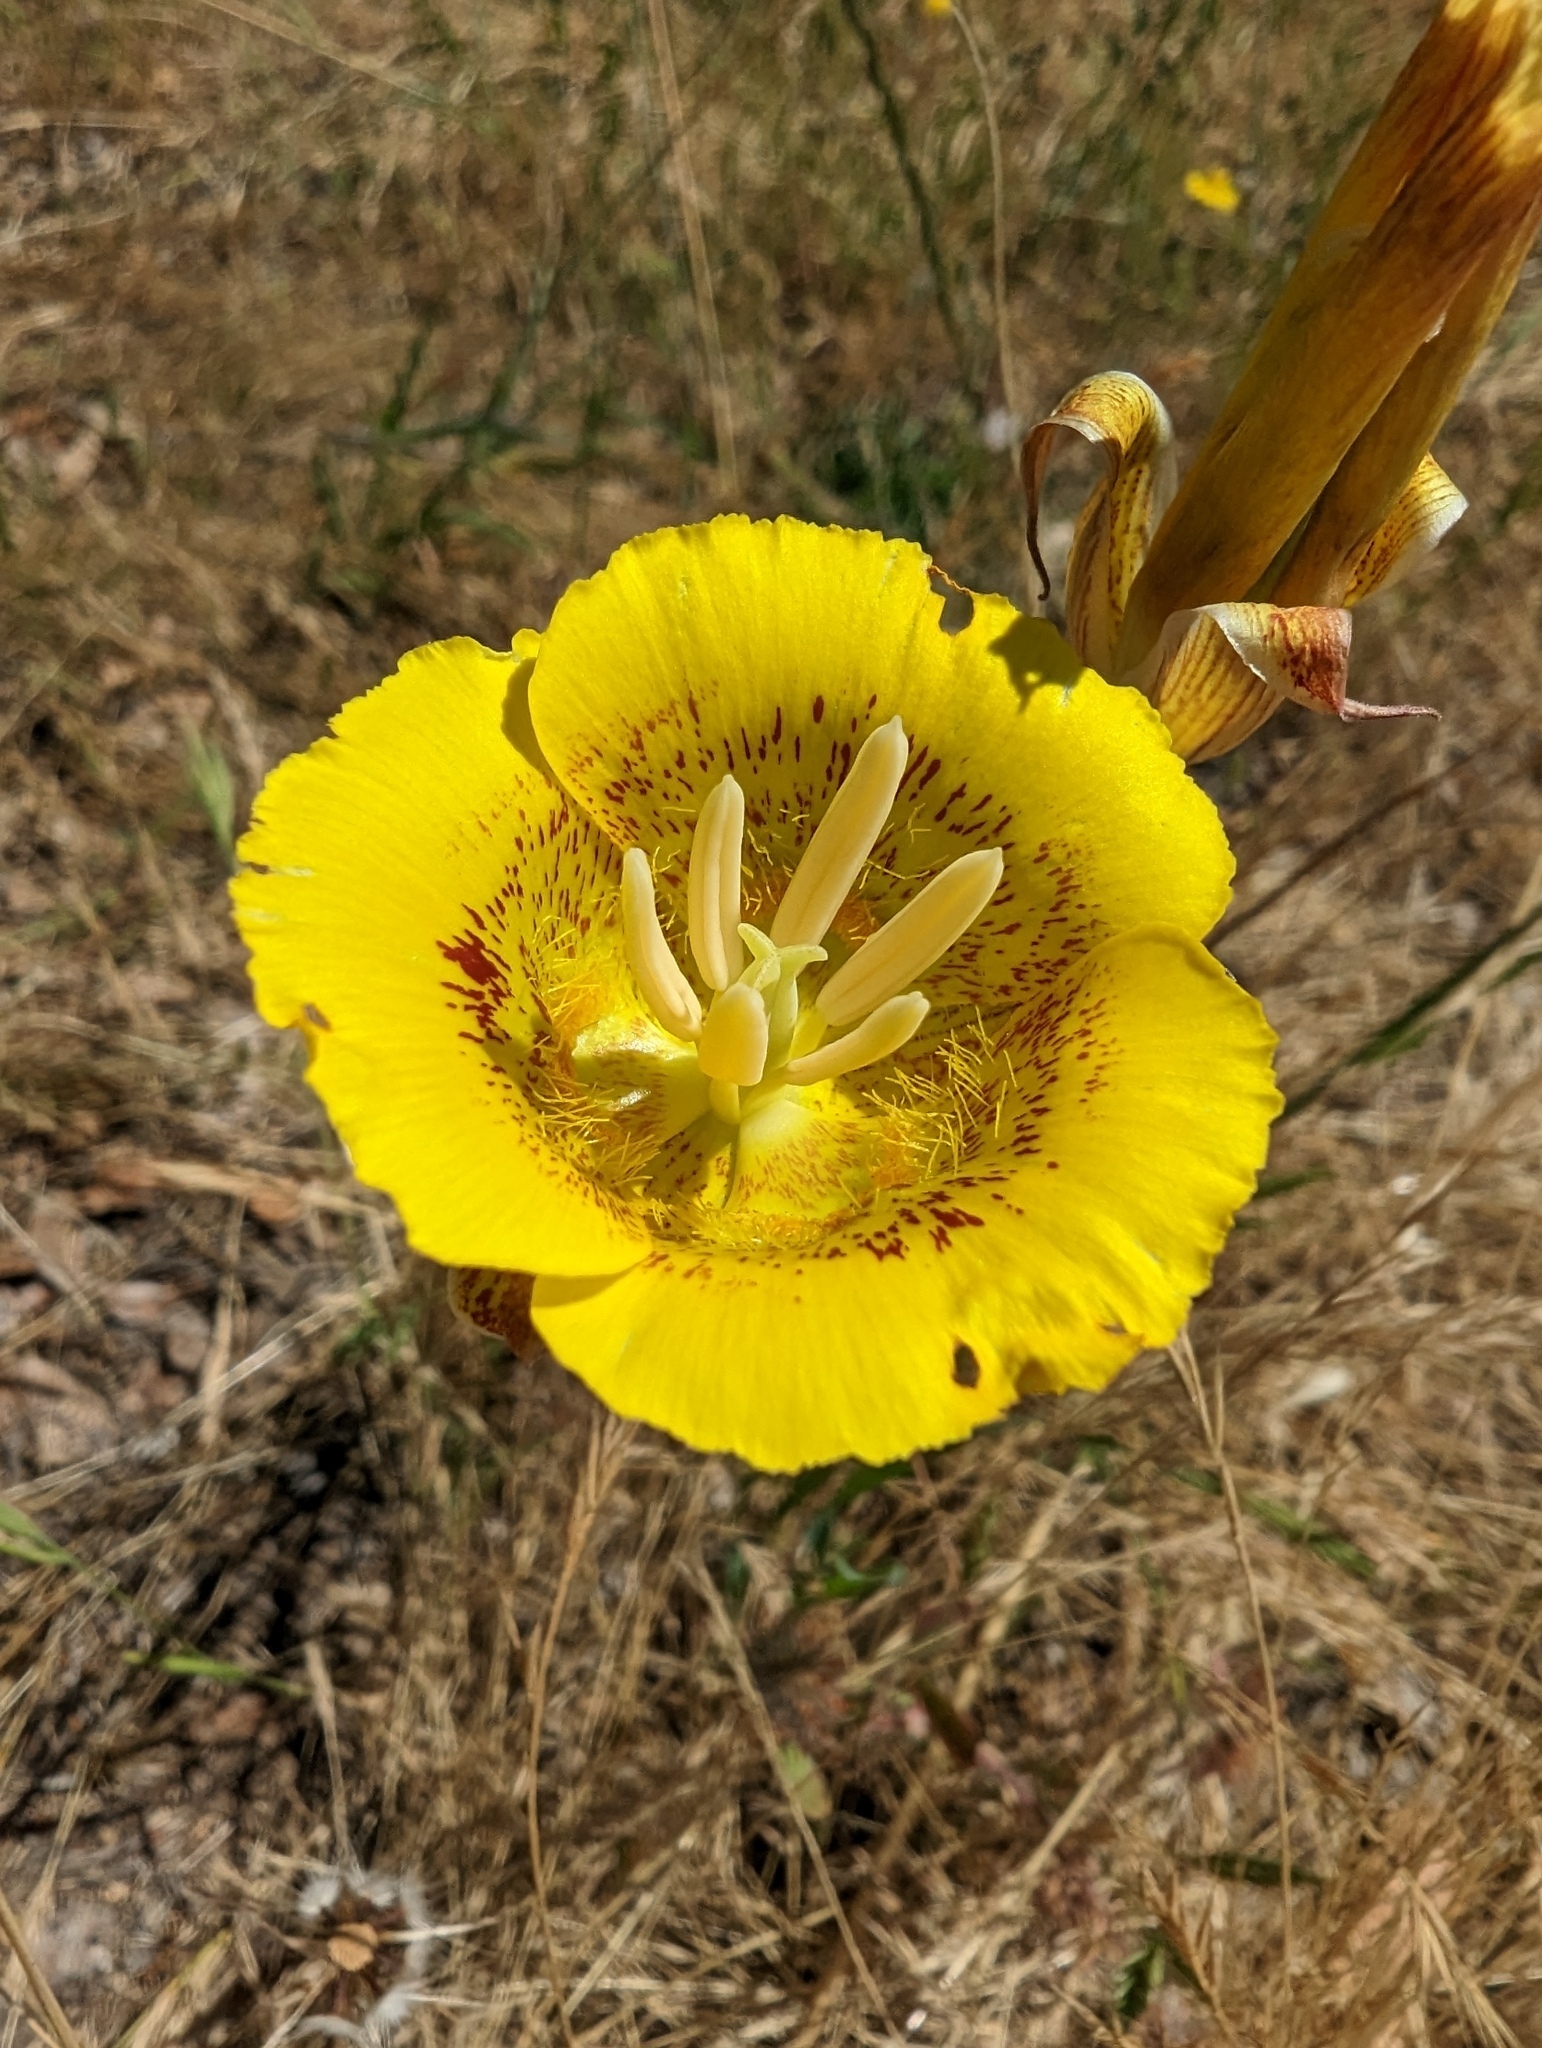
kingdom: Plantae
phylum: Tracheophyta
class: Liliopsida
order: Liliales
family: Liliaceae
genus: Calochortus
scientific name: Calochortus luteus
